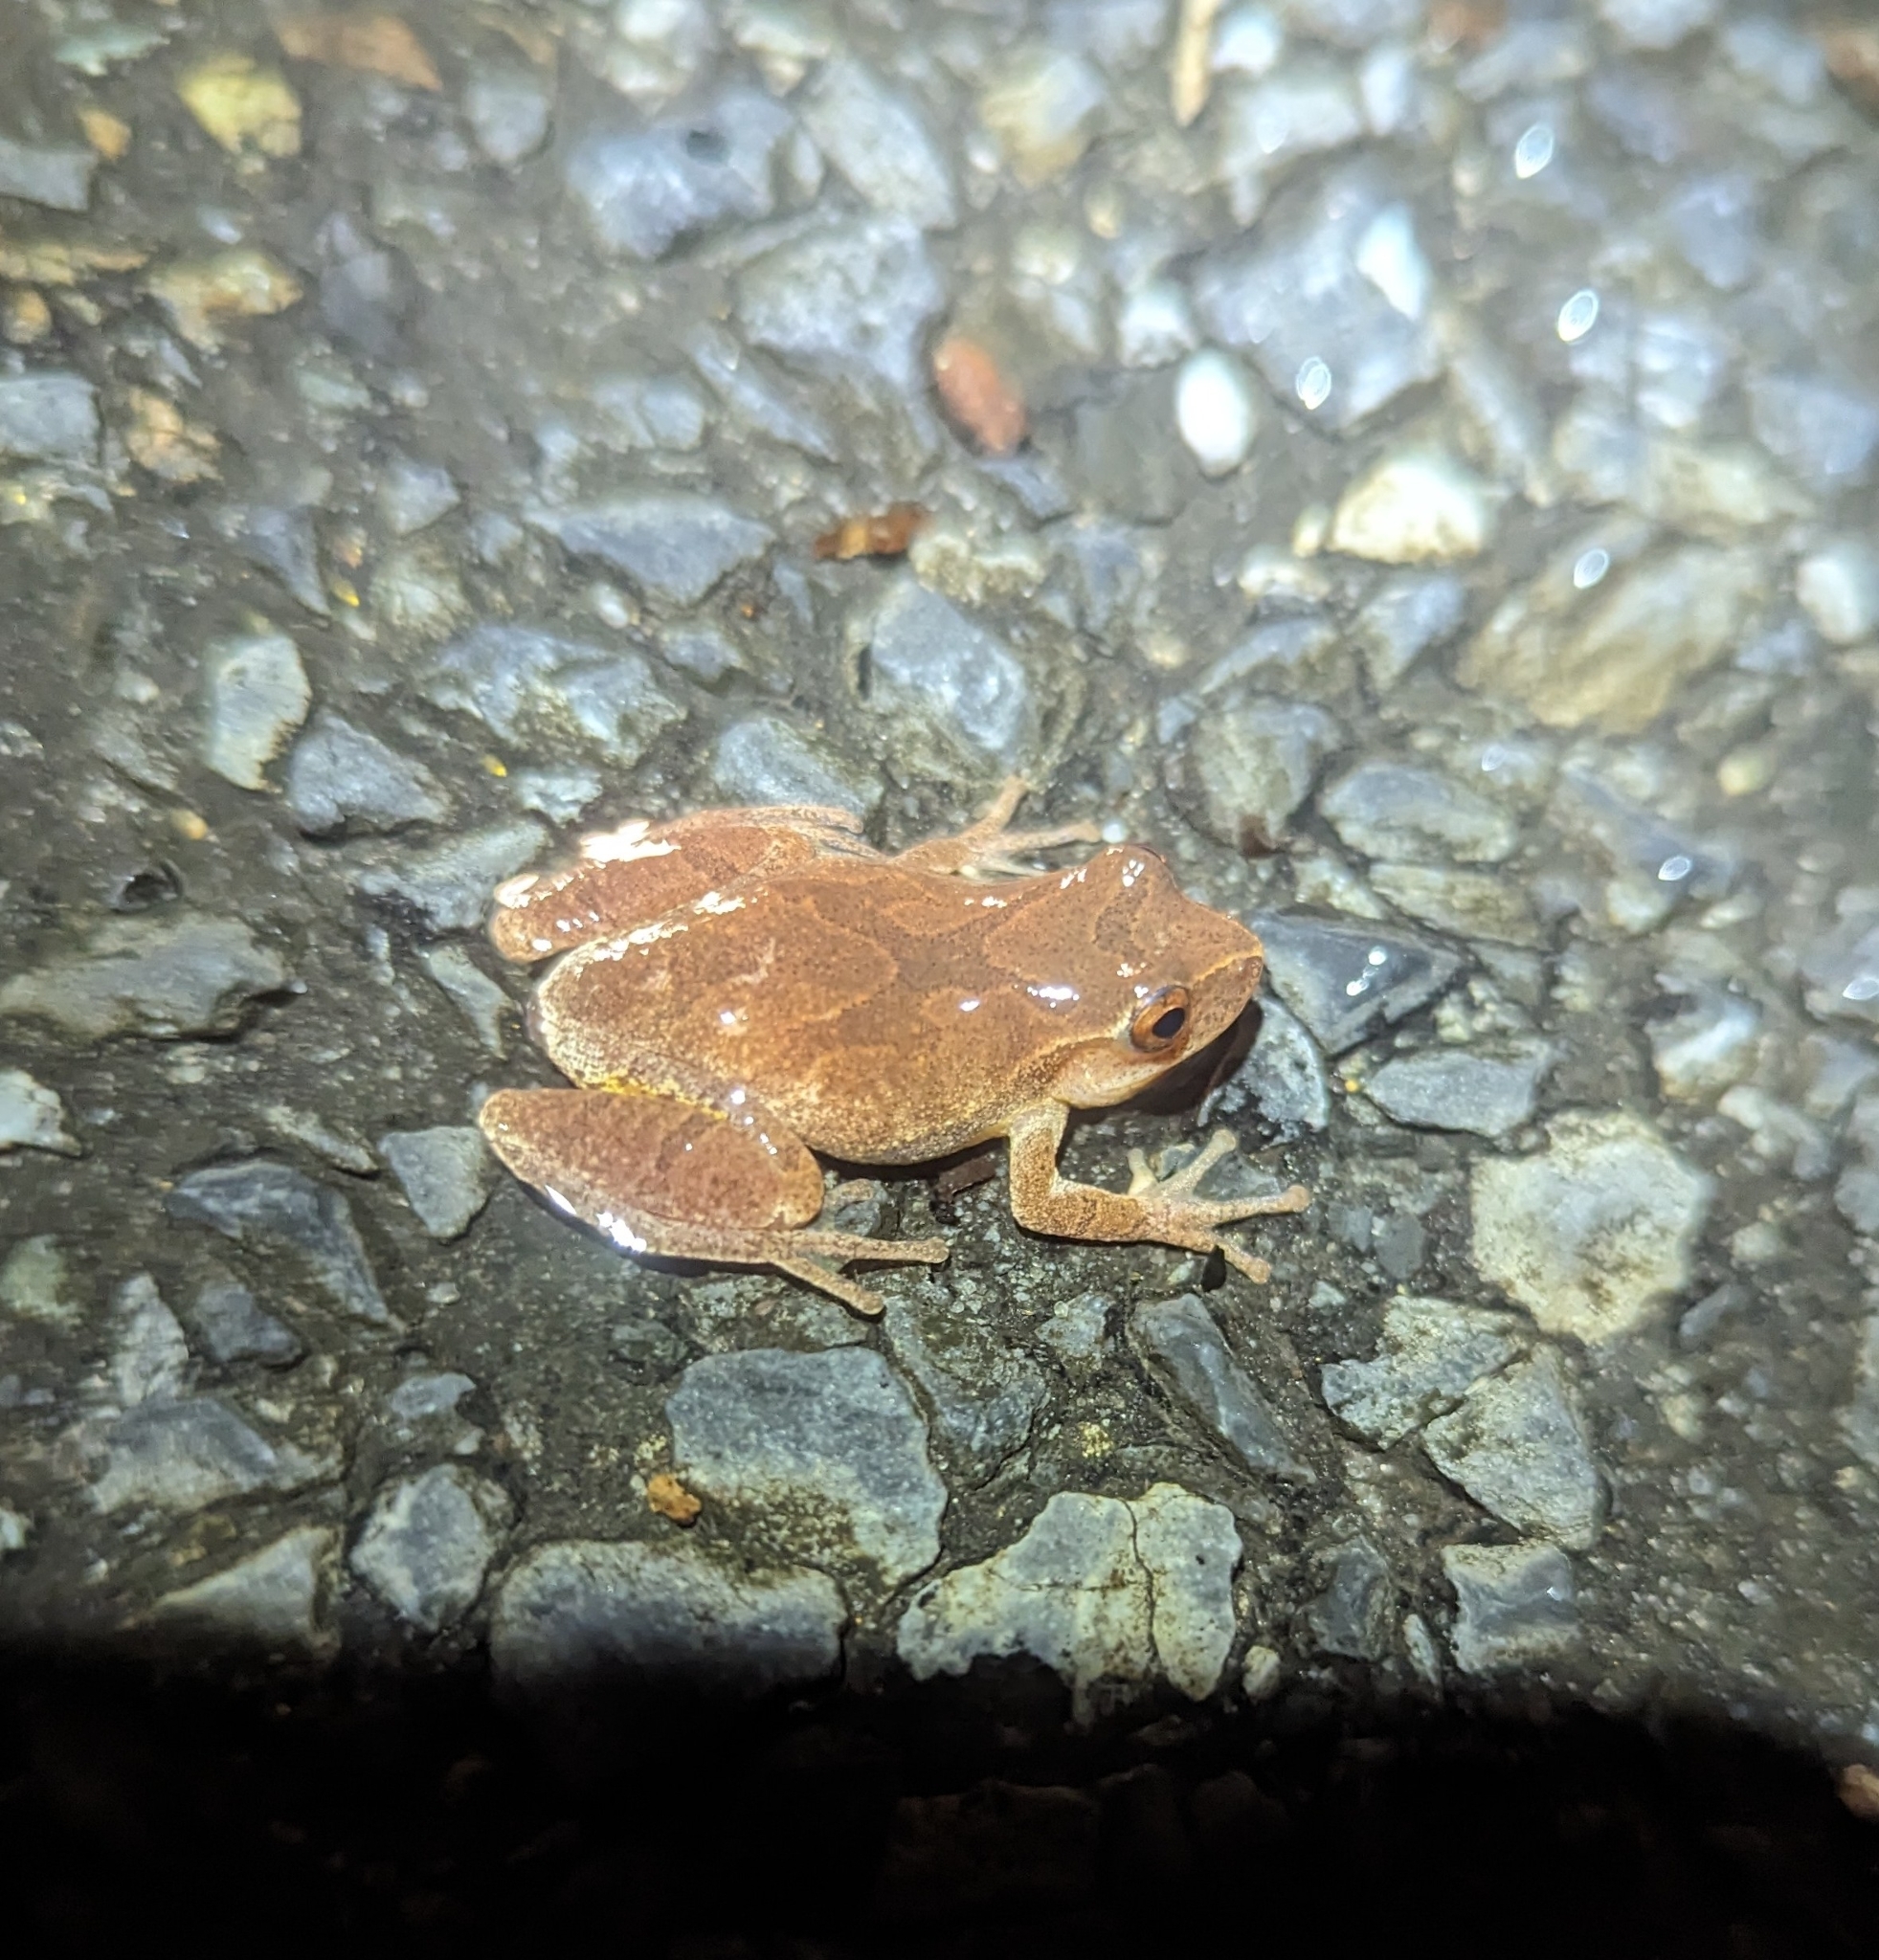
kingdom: Animalia
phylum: Chordata
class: Amphibia
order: Anura
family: Hylidae
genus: Pseudacris
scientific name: Pseudacris crucifer
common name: Spring peeper
